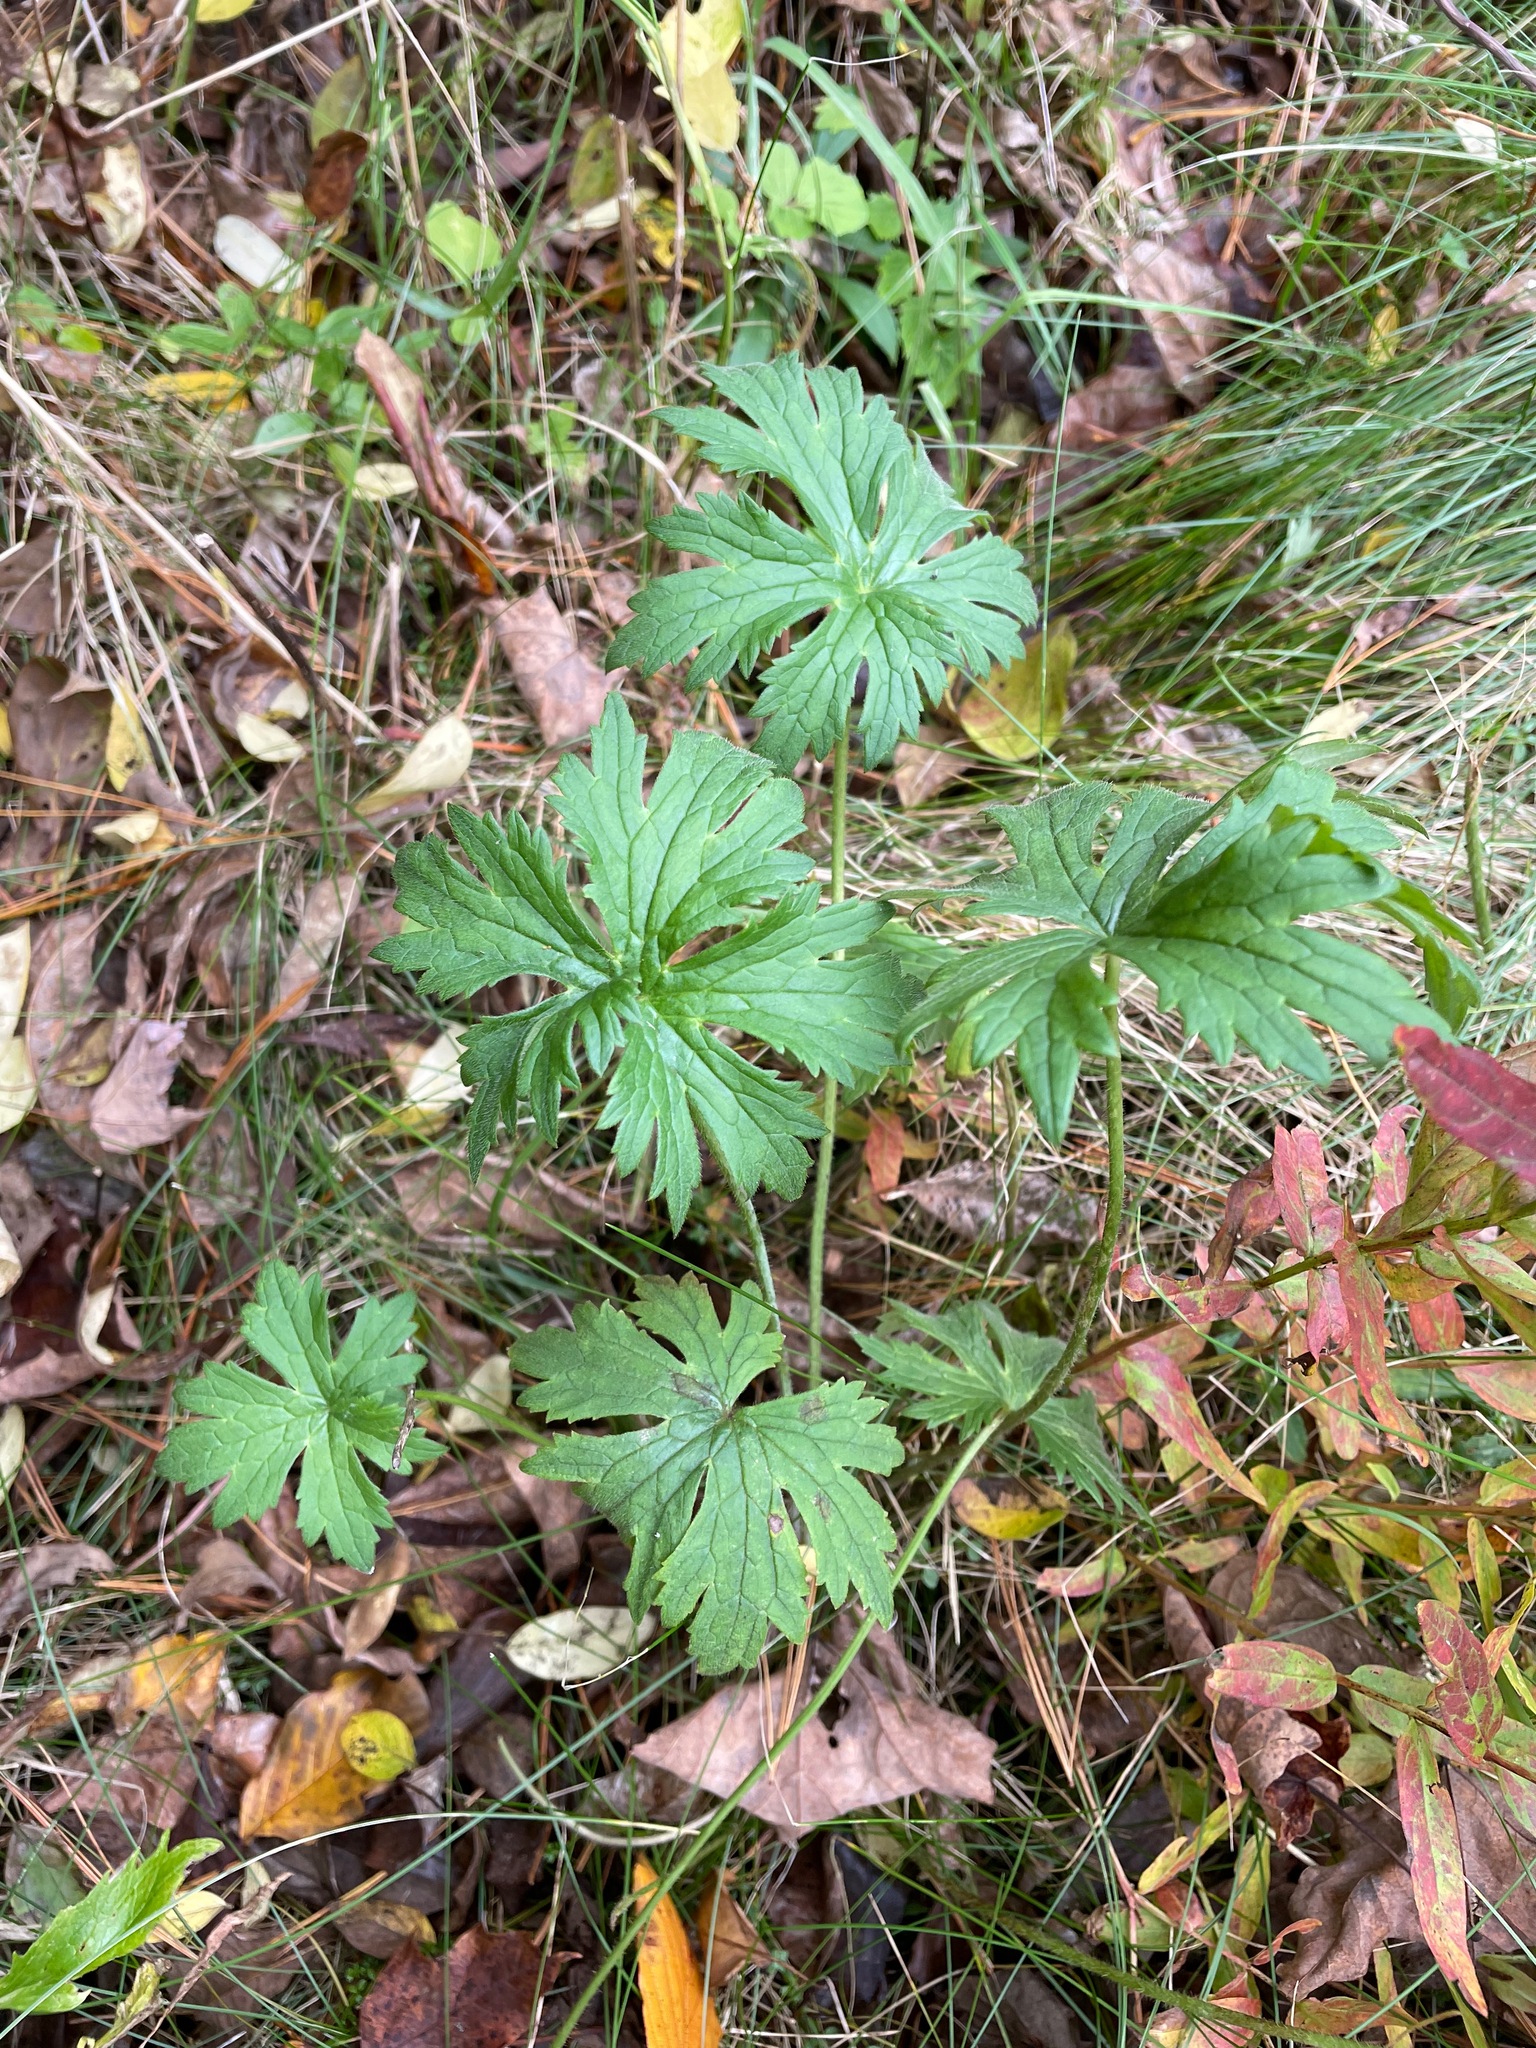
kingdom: Plantae
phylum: Tracheophyta
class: Magnoliopsida
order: Geraniales
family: Geraniaceae
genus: Geranium
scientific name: Geranium maculatum
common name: Spotted geranium
